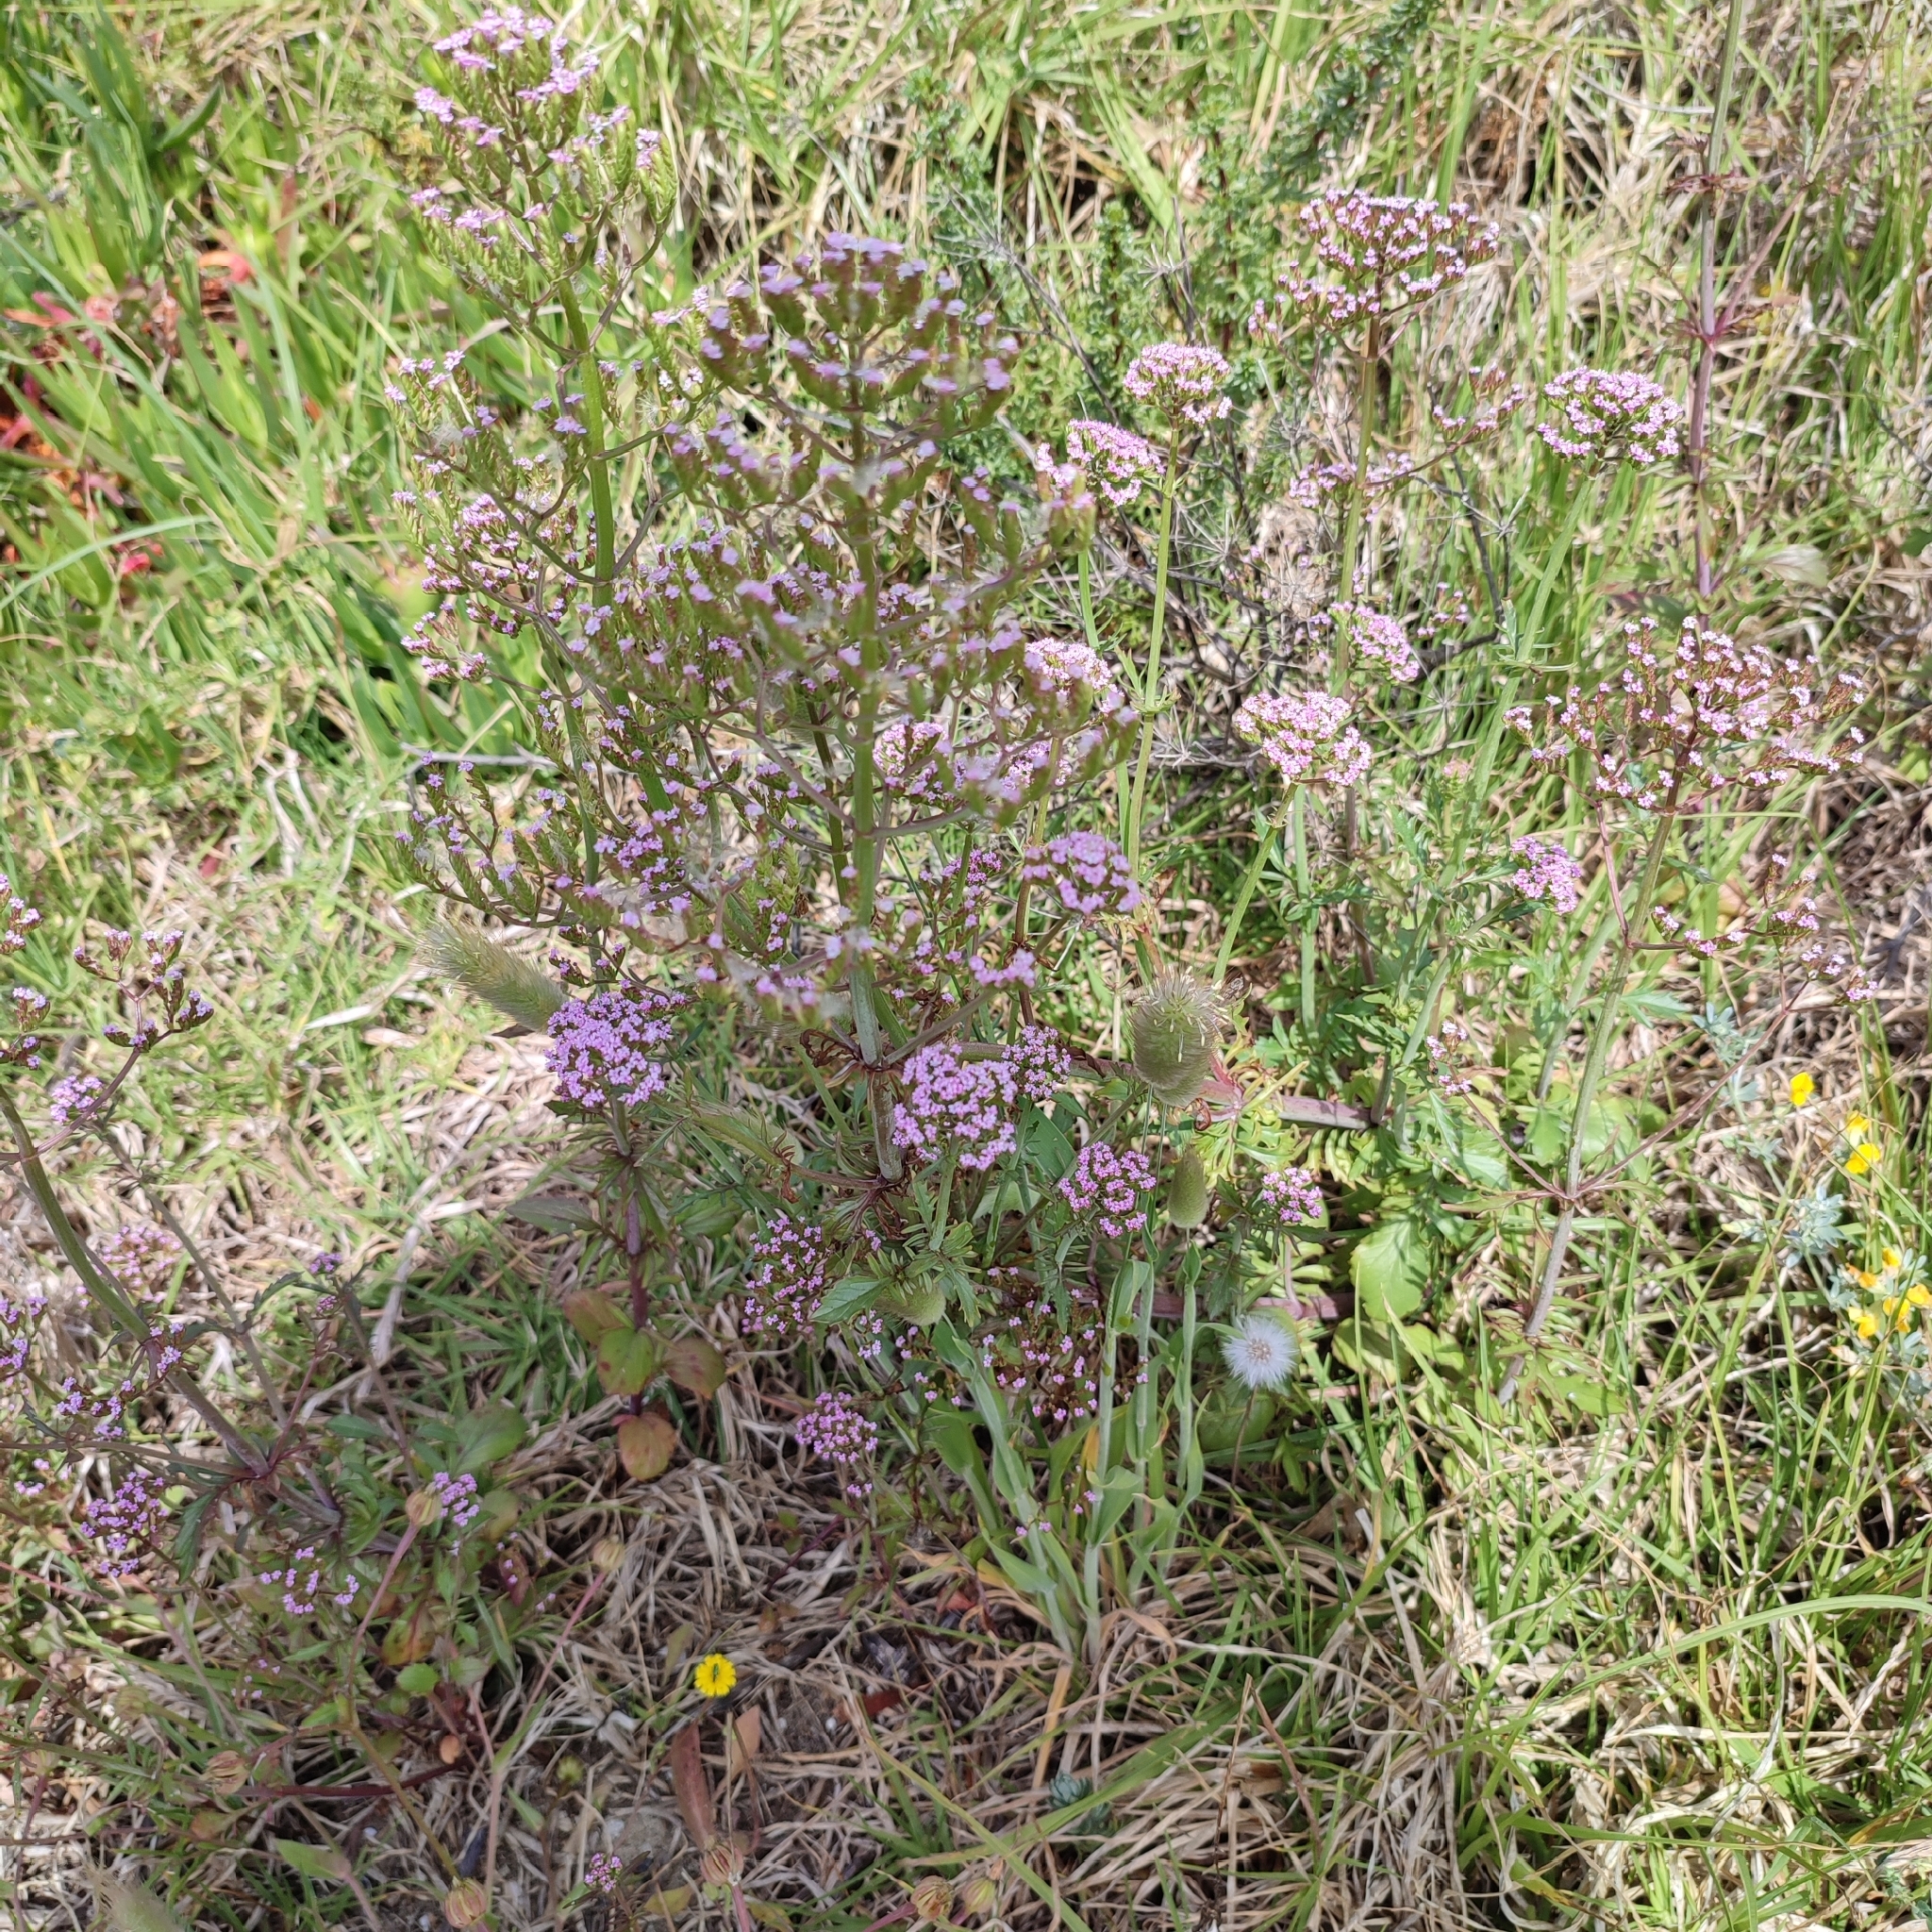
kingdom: Plantae
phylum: Tracheophyta
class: Magnoliopsida
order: Dipsacales
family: Caprifoliaceae
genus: Centranthus
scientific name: Centranthus calcitrapae
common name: Annual valerian
